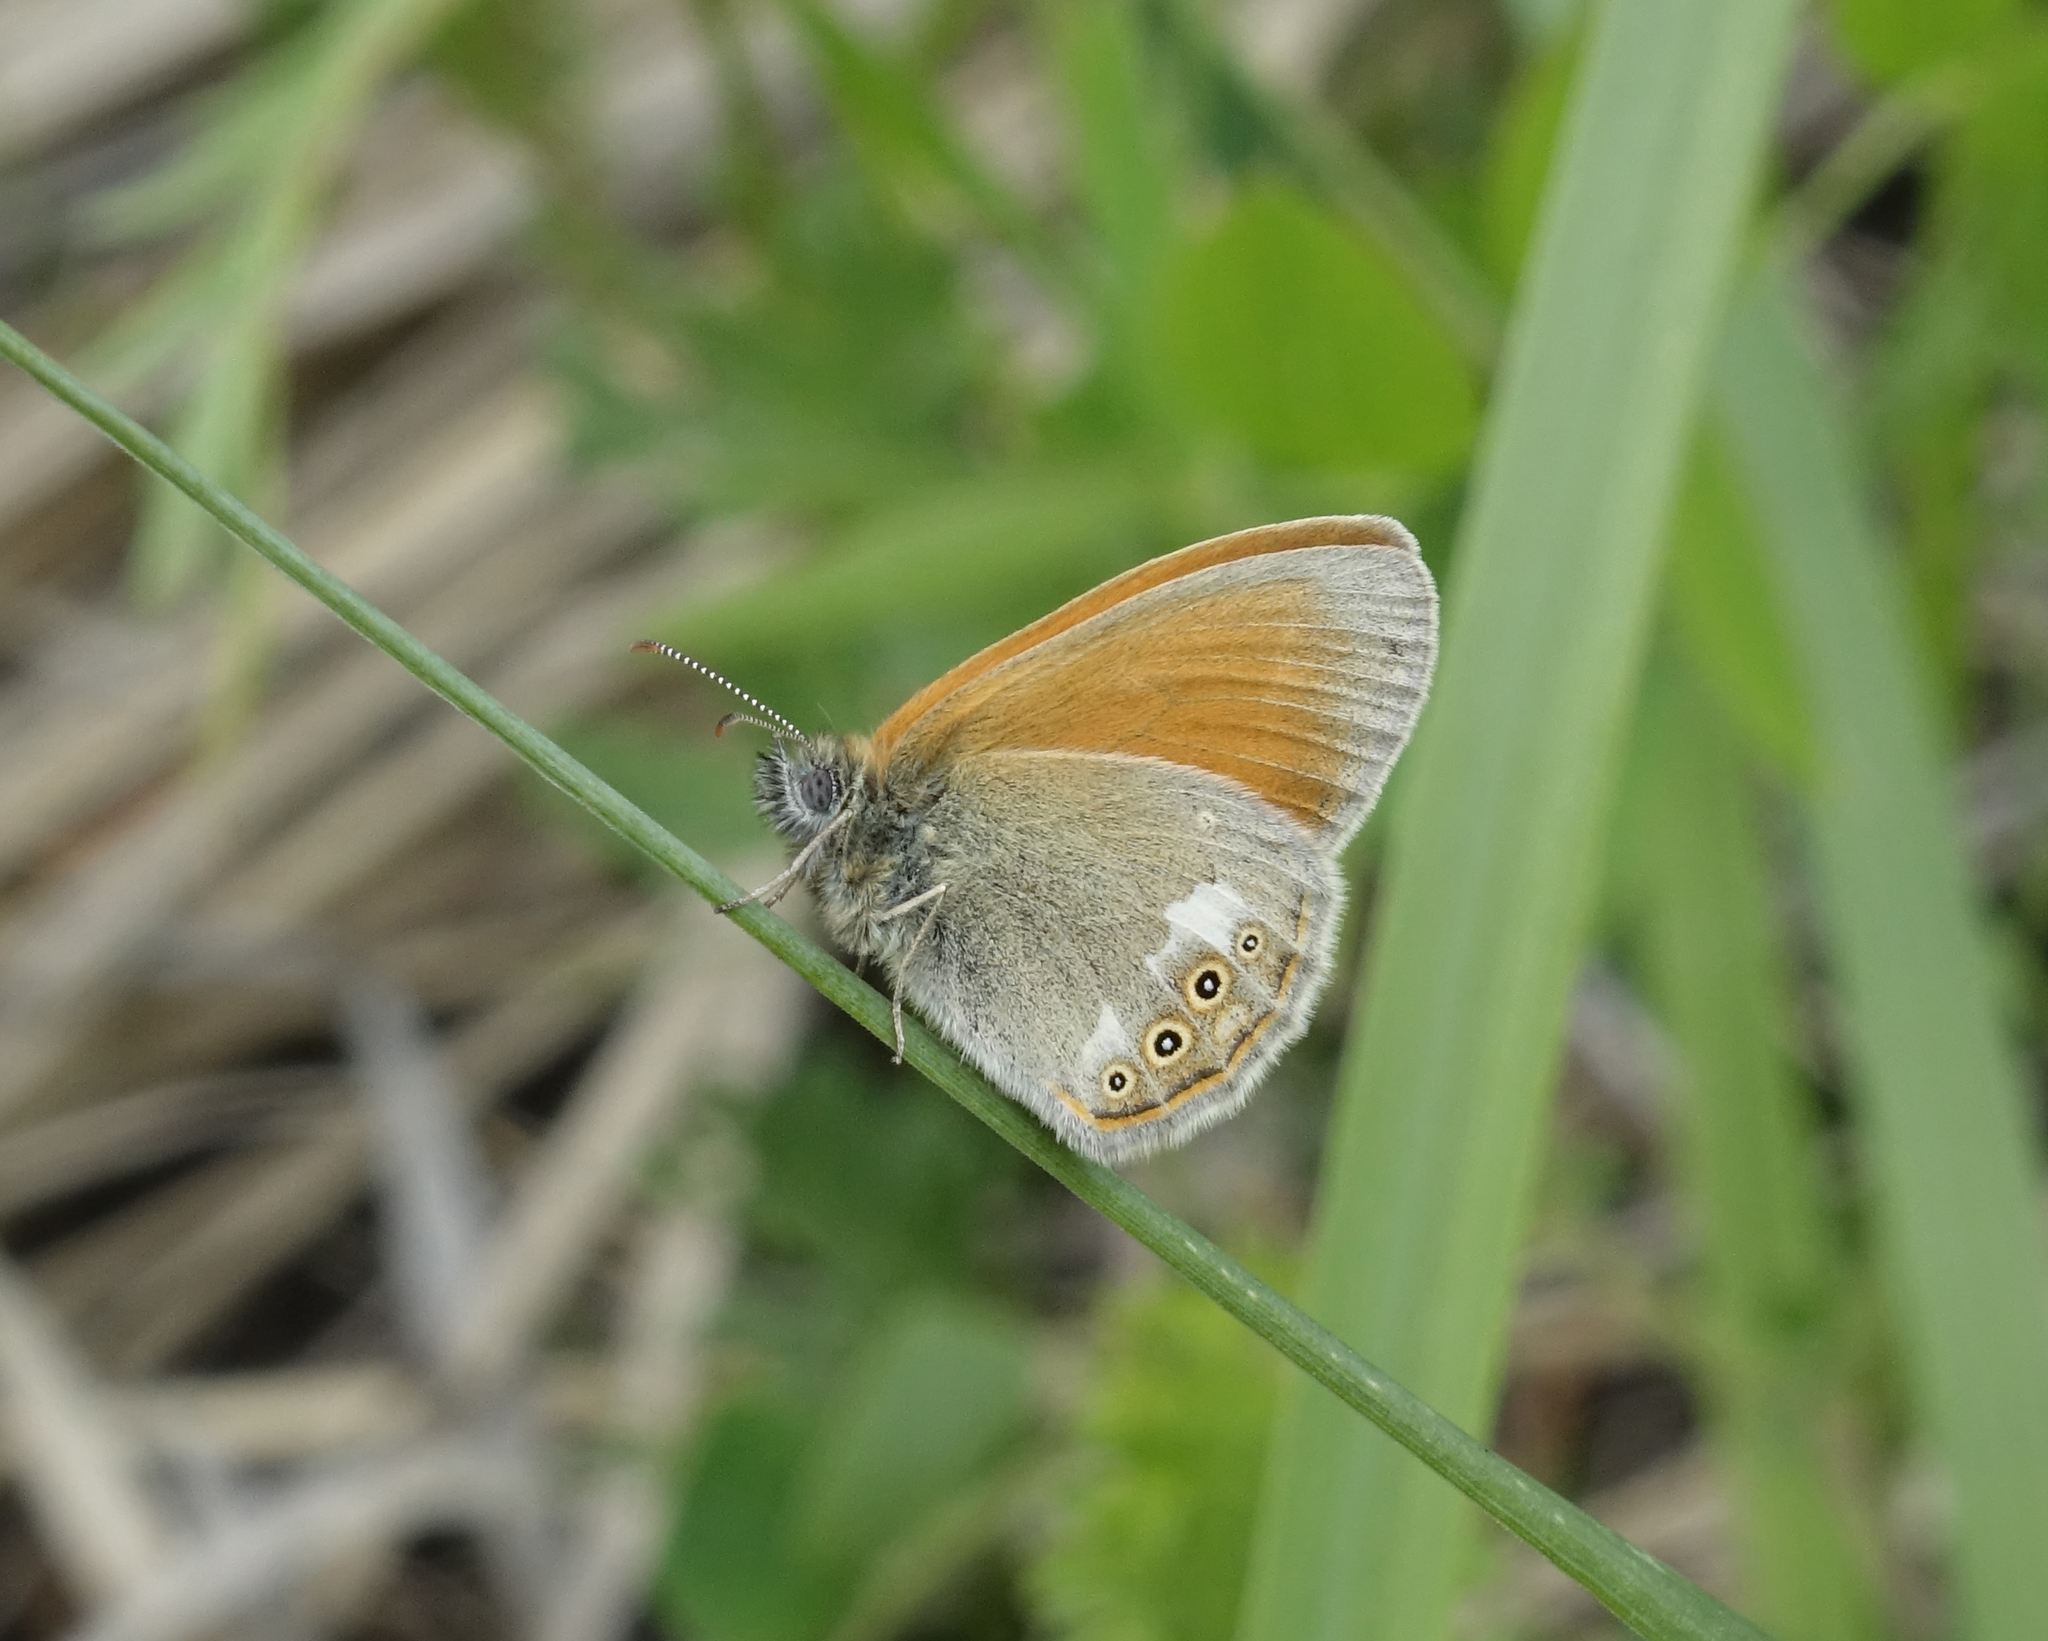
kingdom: Animalia
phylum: Arthropoda
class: Insecta
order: Lepidoptera
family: Nymphalidae
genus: Coenonympha
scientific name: Coenonympha iphis
